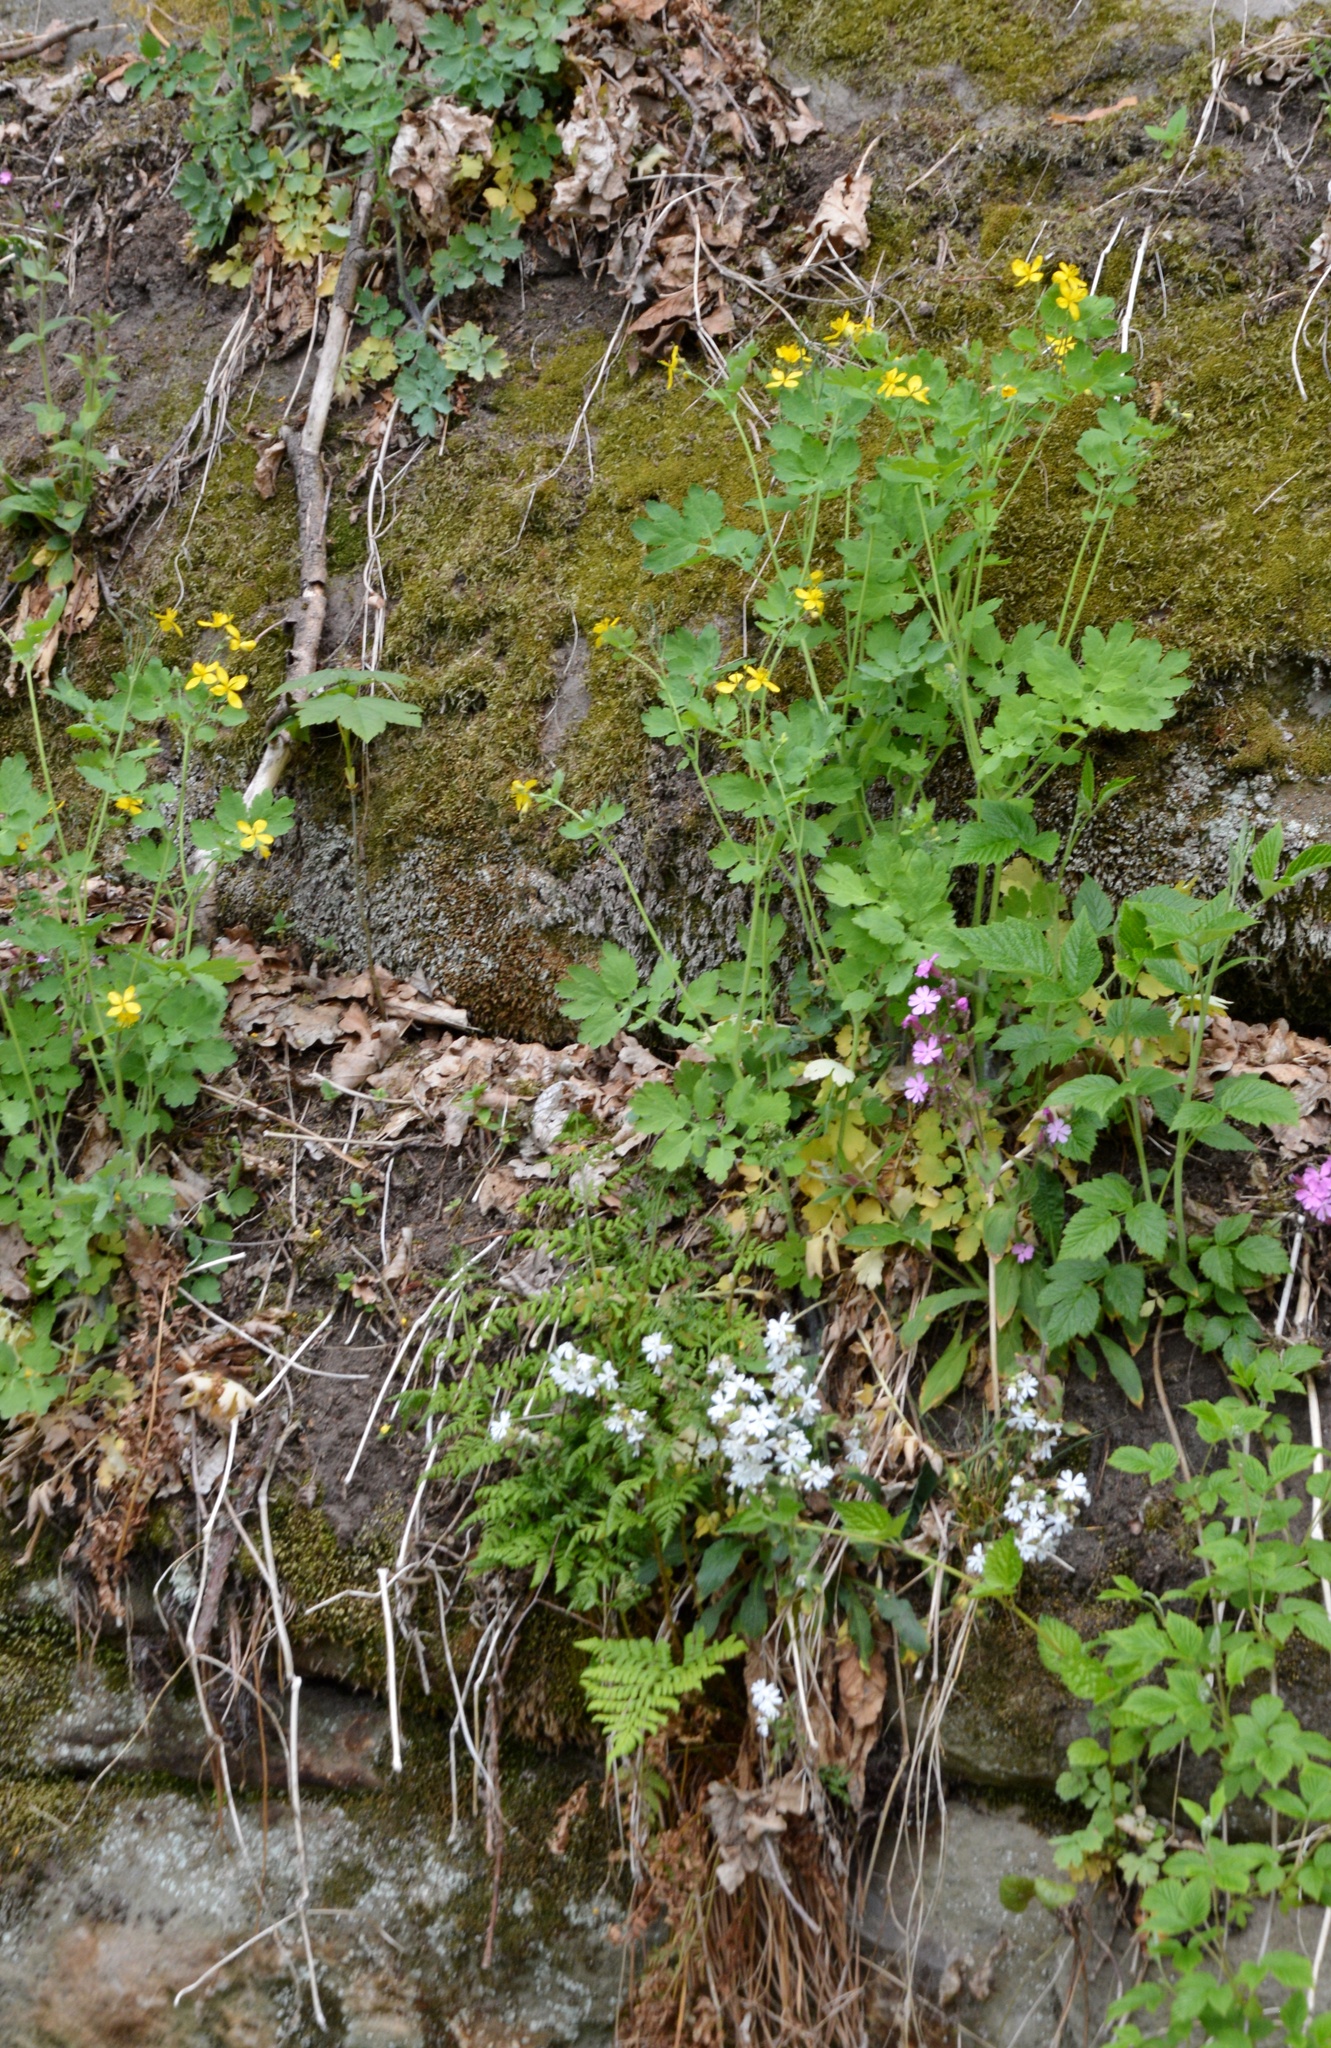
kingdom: Plantae
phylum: Tracheophyta
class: Magnoliopsida
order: Ranunculales
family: Papaveraceae
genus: Chelidonium
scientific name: Chelidonium majus
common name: Greater celandine
